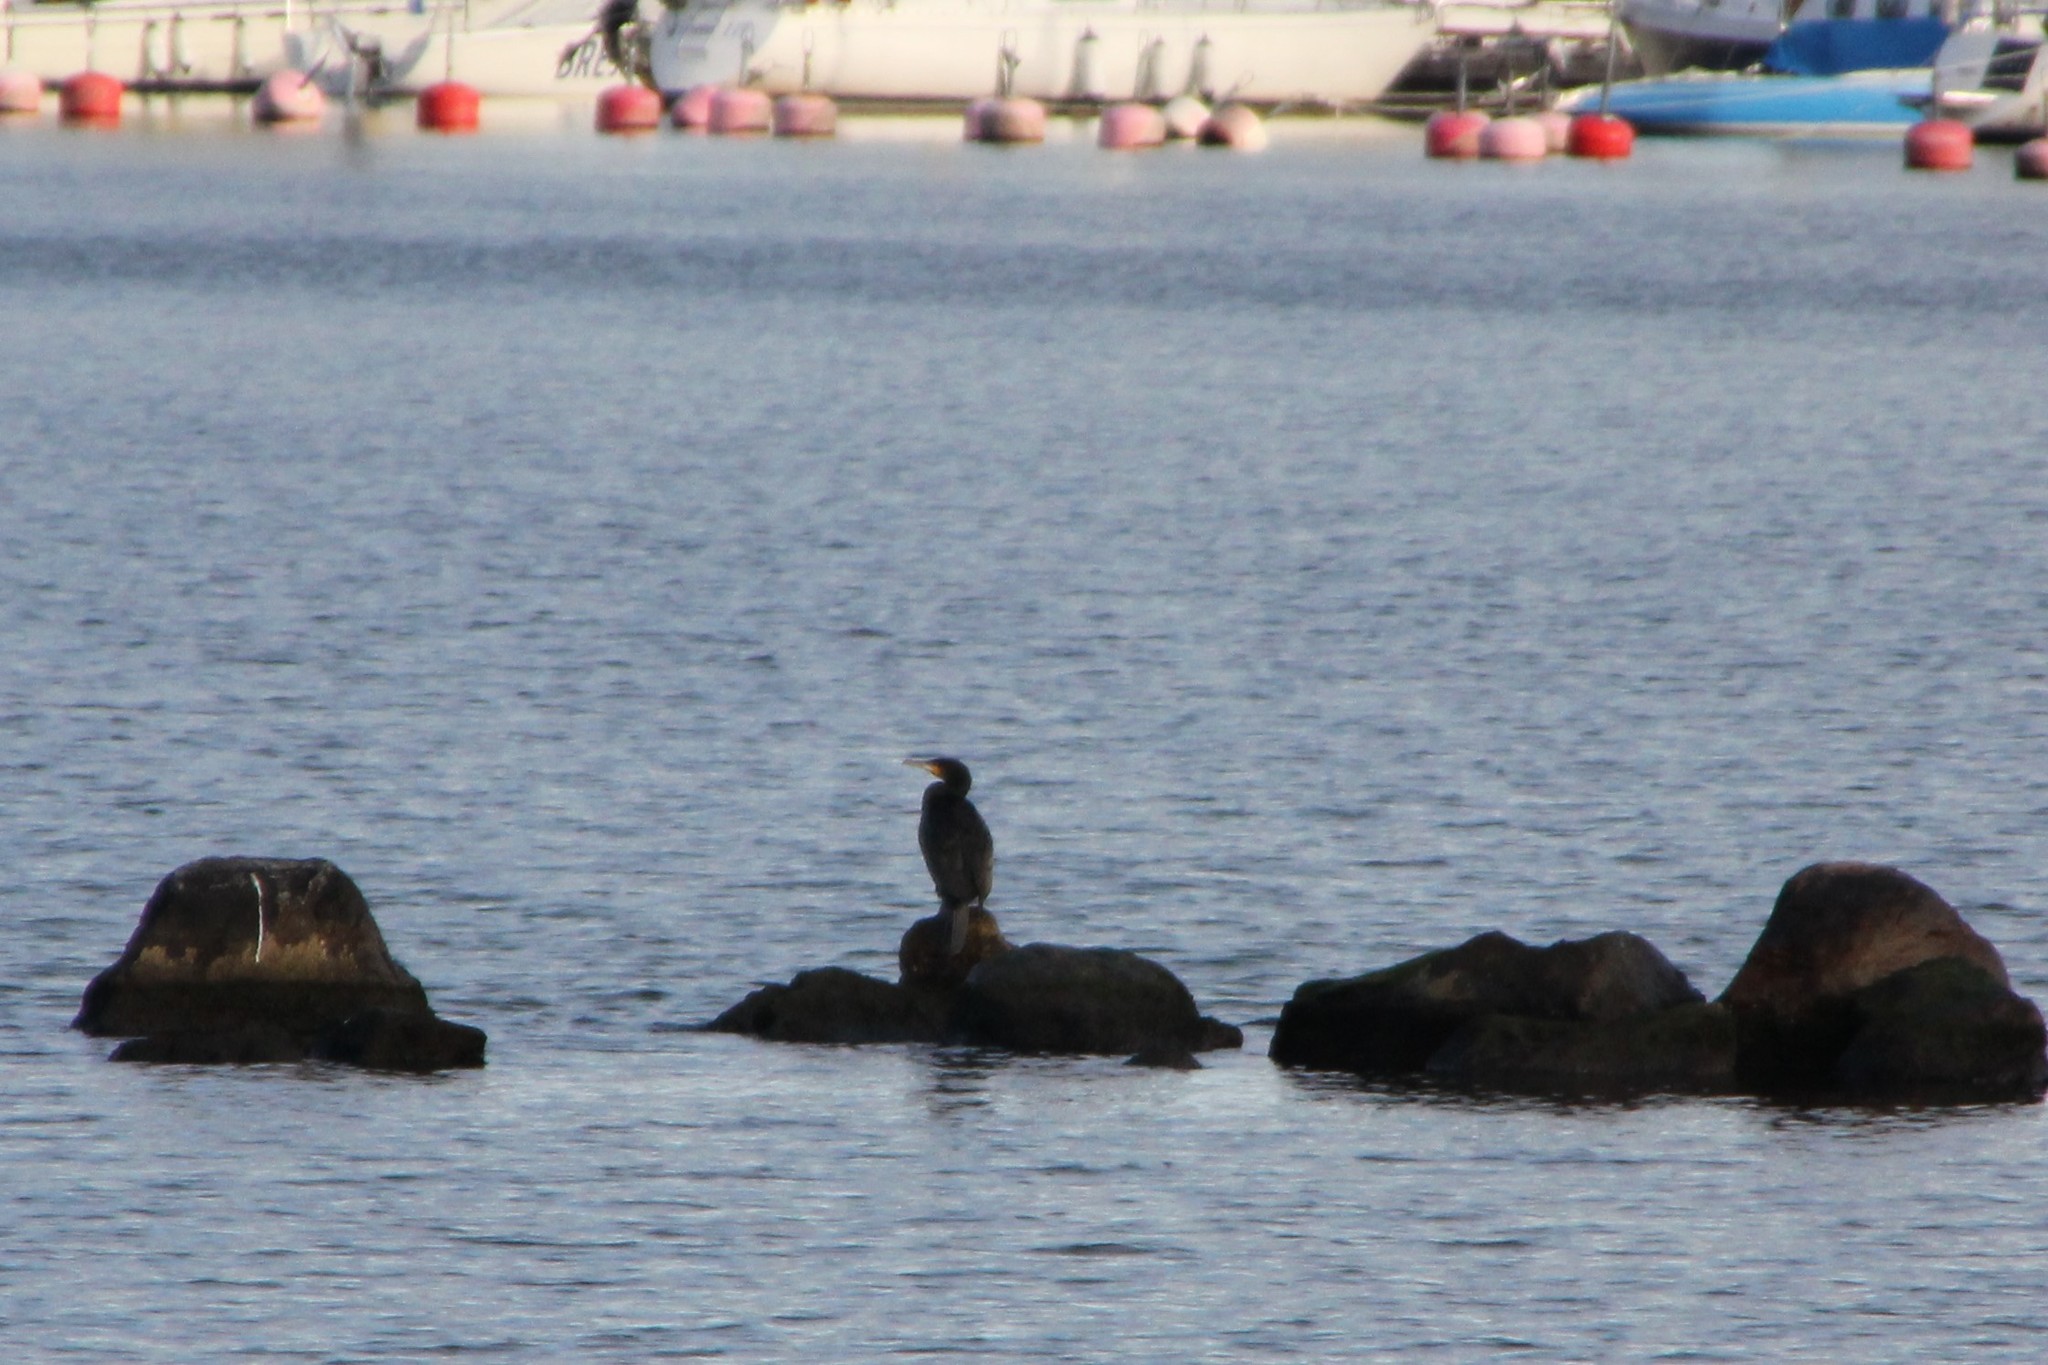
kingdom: Animalia
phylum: Chordata
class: Aves
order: Suliformes
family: Phalacrocoracidae
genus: Phalacrocorax
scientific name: Phalacrocorax carbo
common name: Great cormorant
